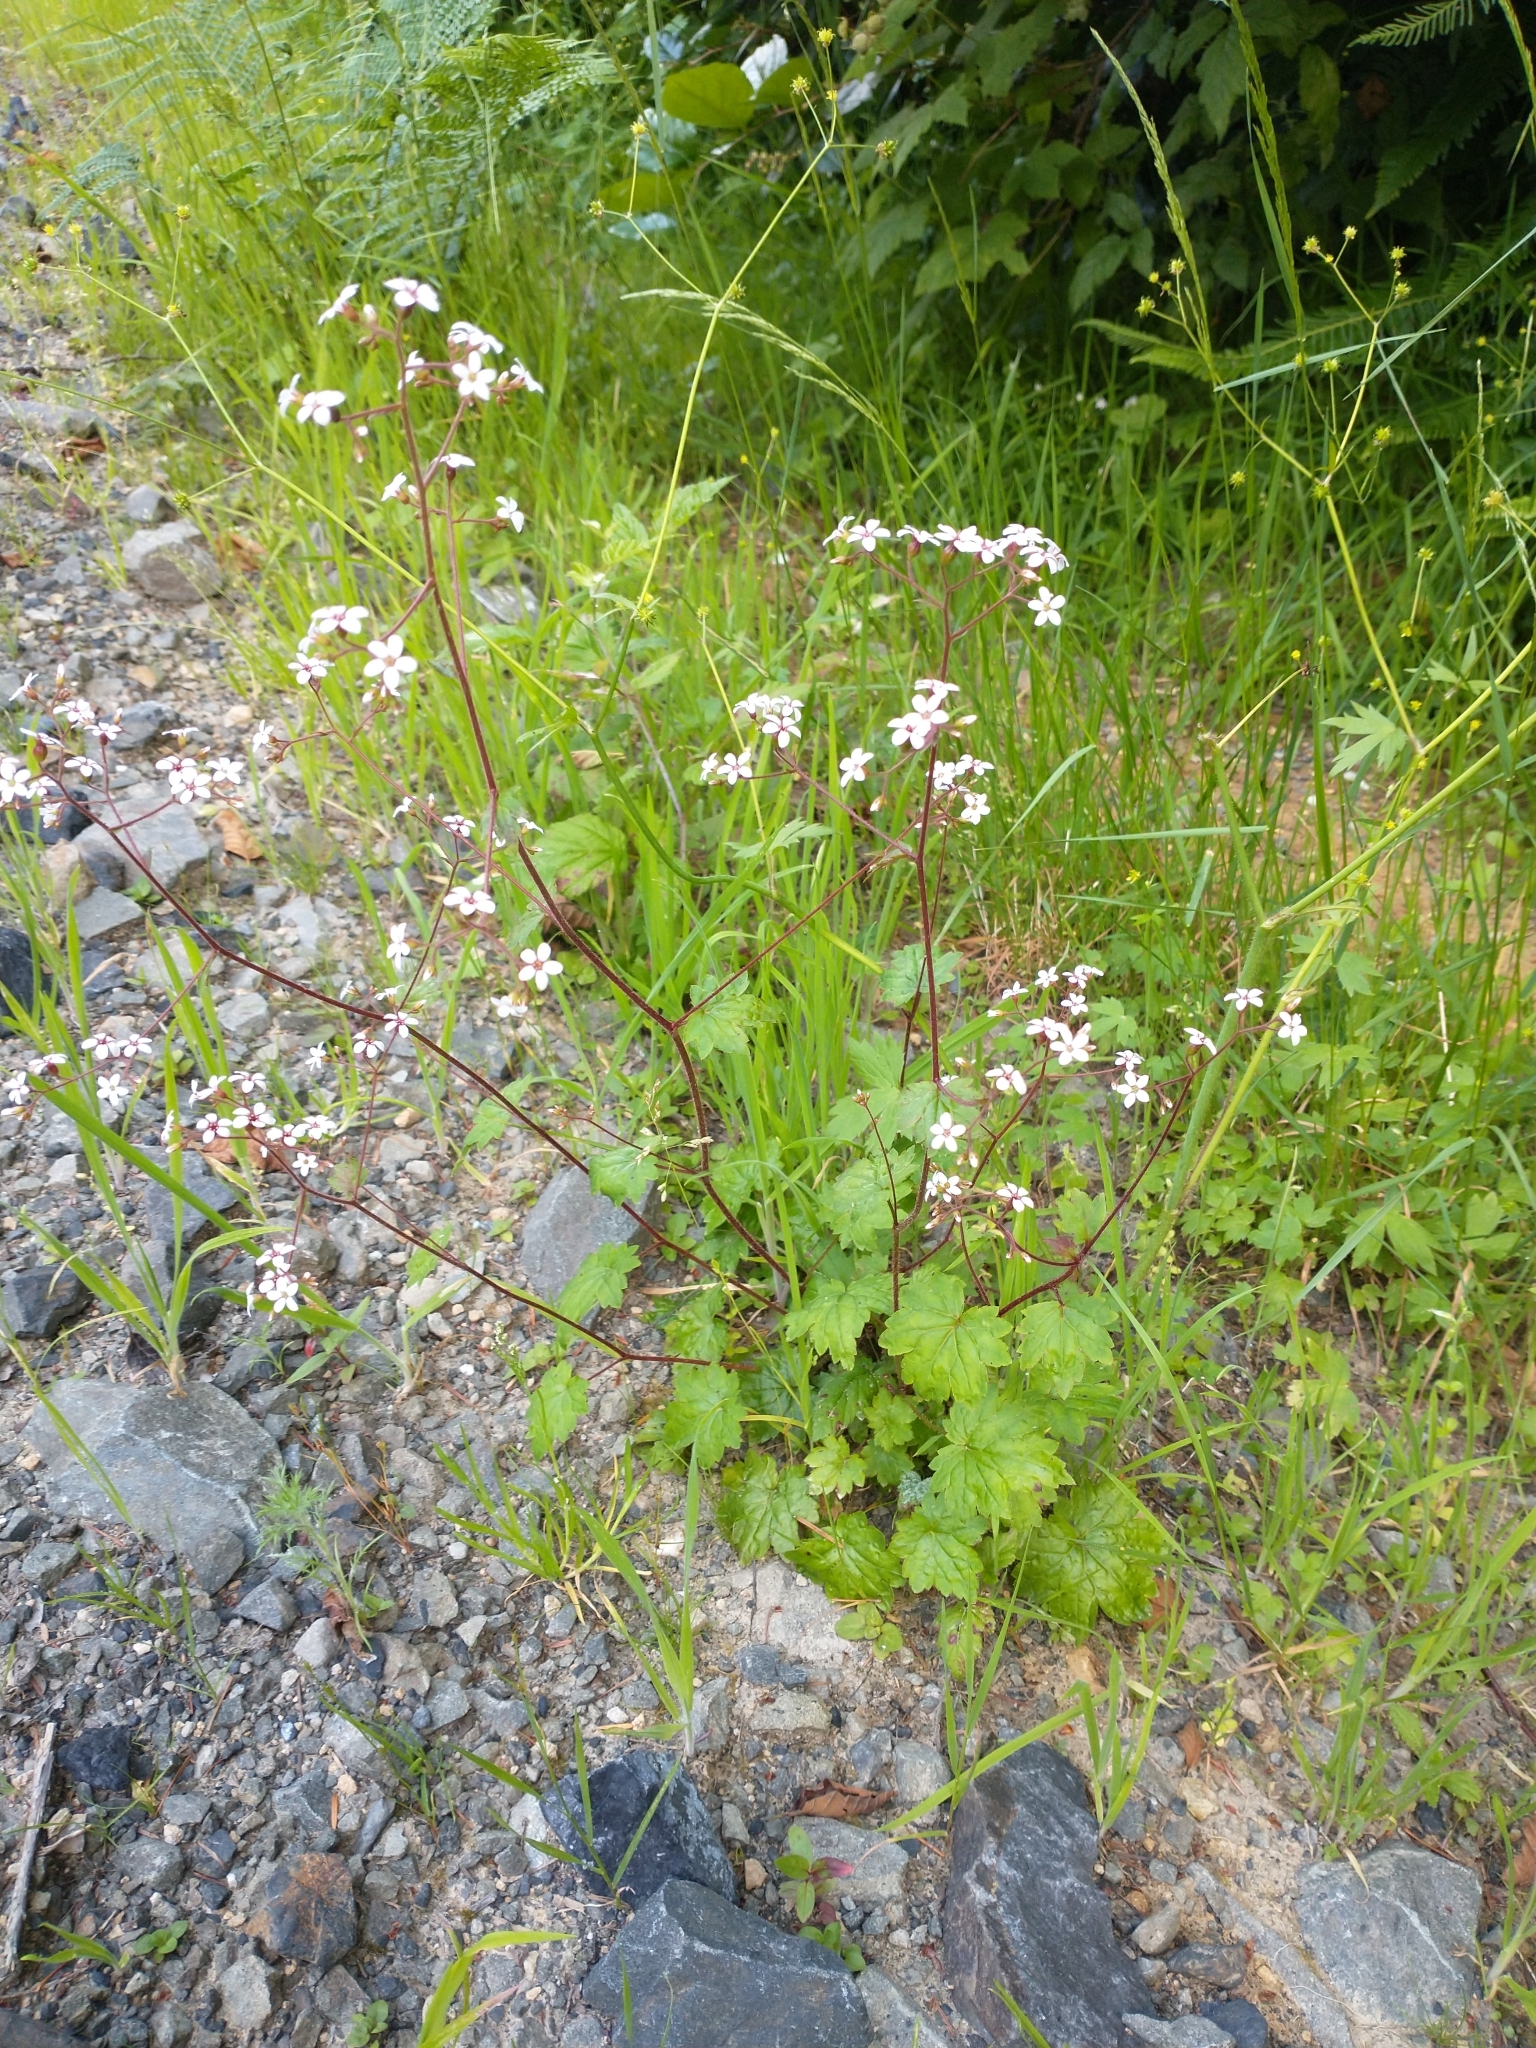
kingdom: Plantae
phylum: Tracheophyta
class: Magnoliopsida
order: Saxifragales
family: Saxifragaceae
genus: Boykinia
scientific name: Boykinia occidentalis
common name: Coast boykinia
